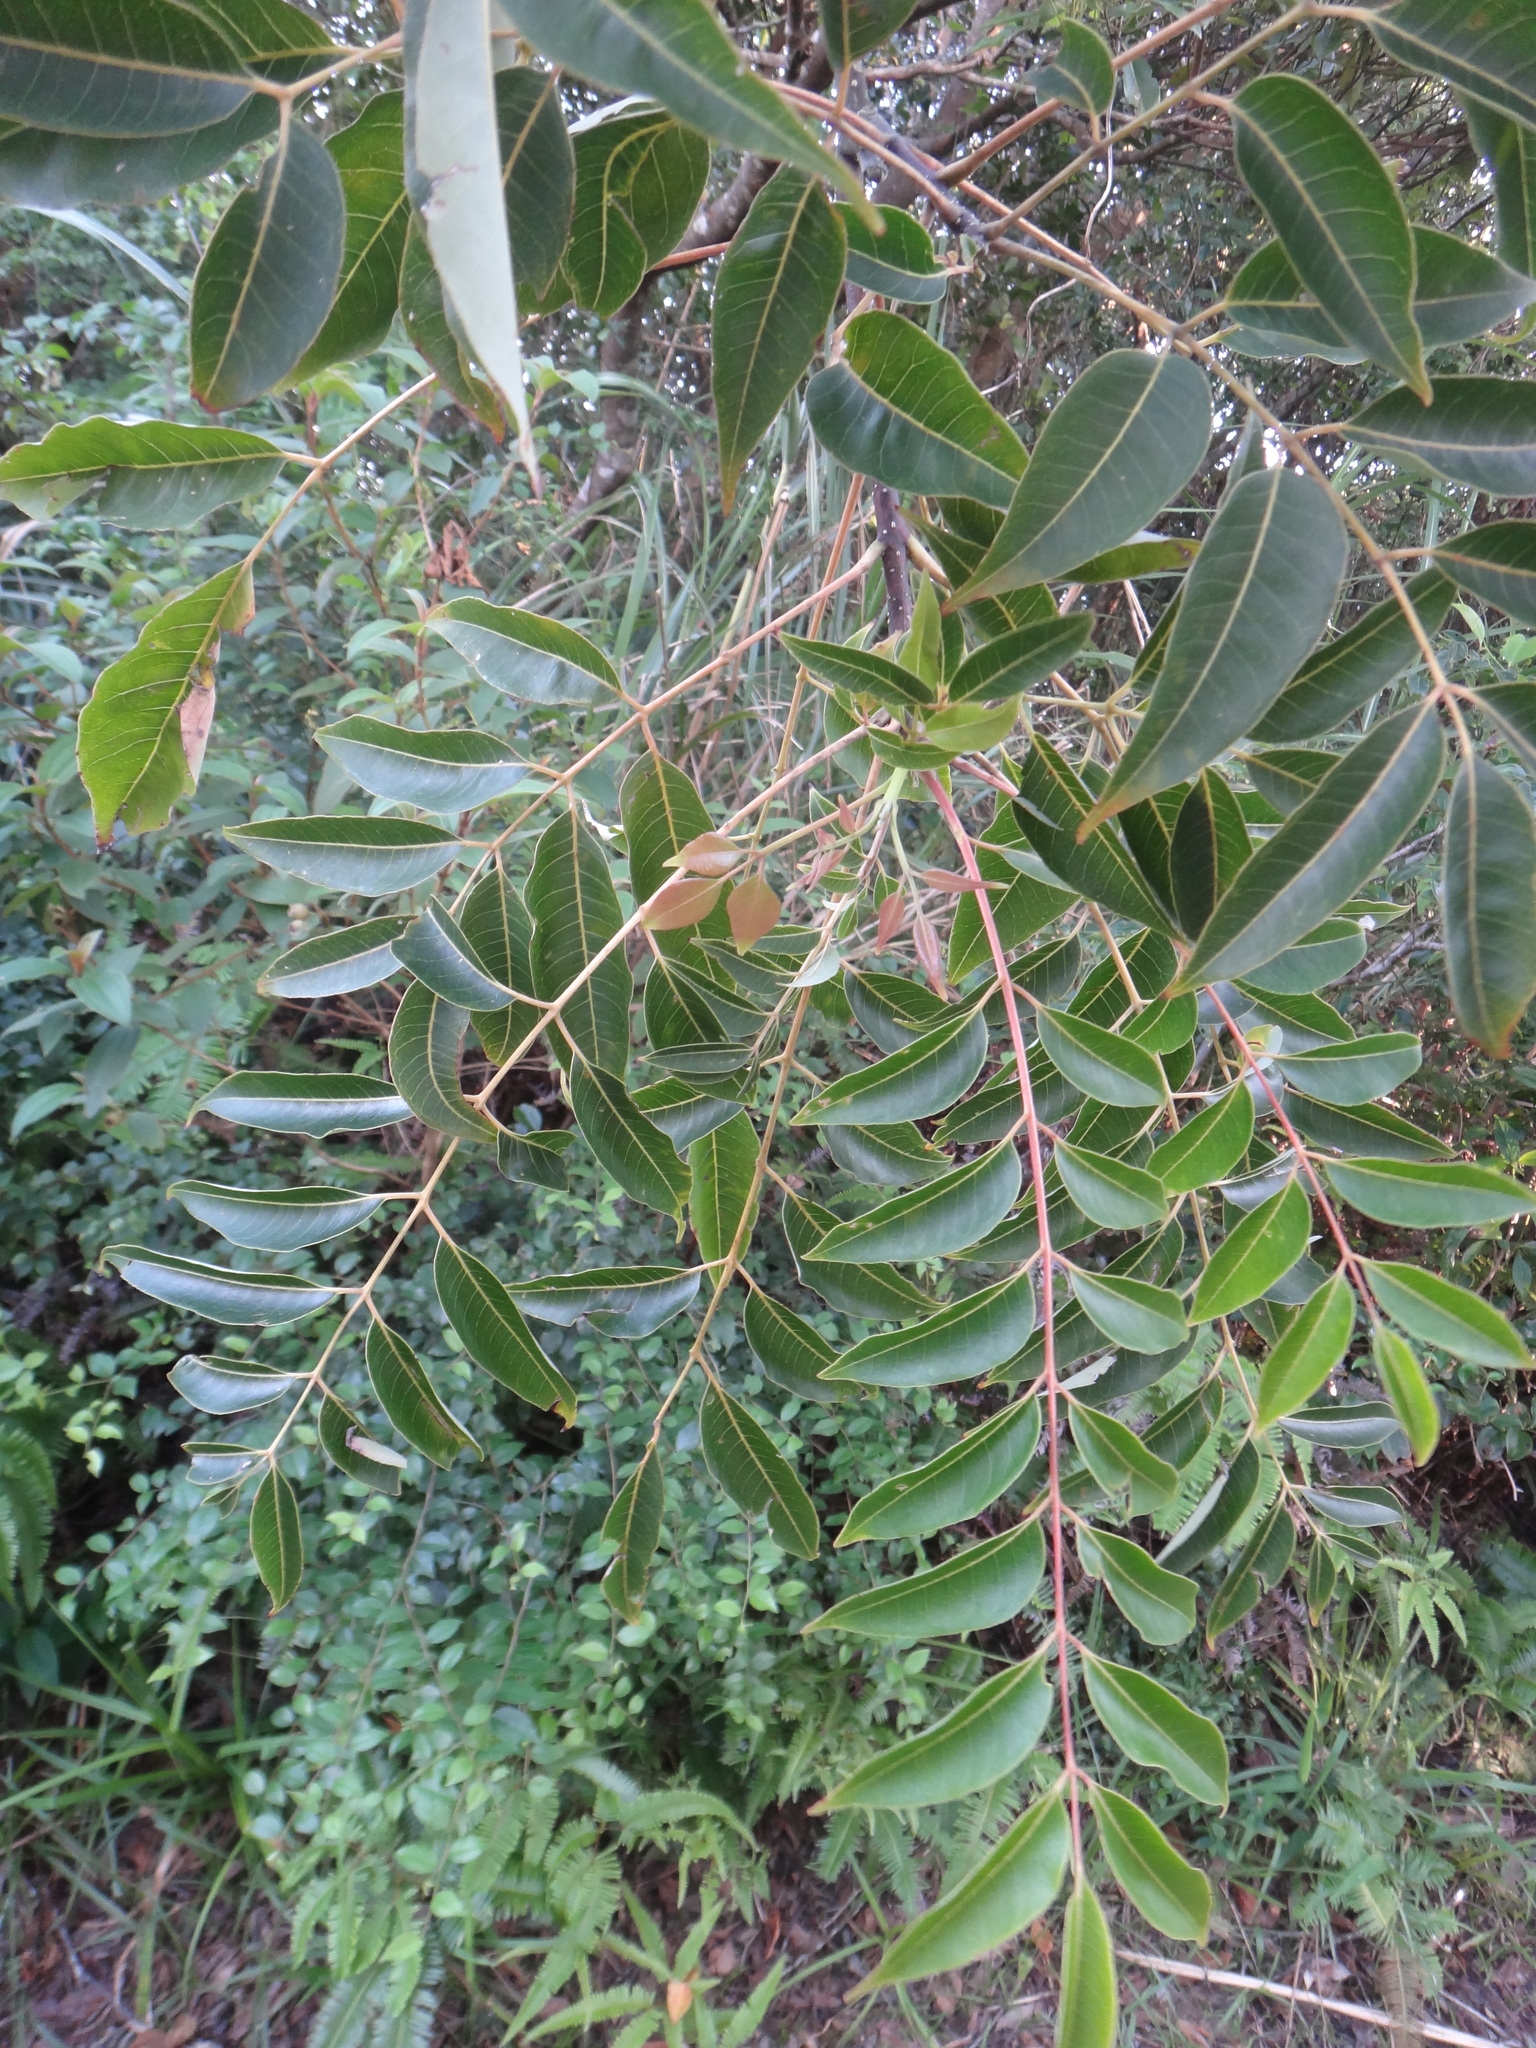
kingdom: Plantae
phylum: Tracheophyta
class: Magnoliopsida
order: Sapindales
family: Rutaceae
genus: Tetradium
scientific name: Tetradium glabrifolium
